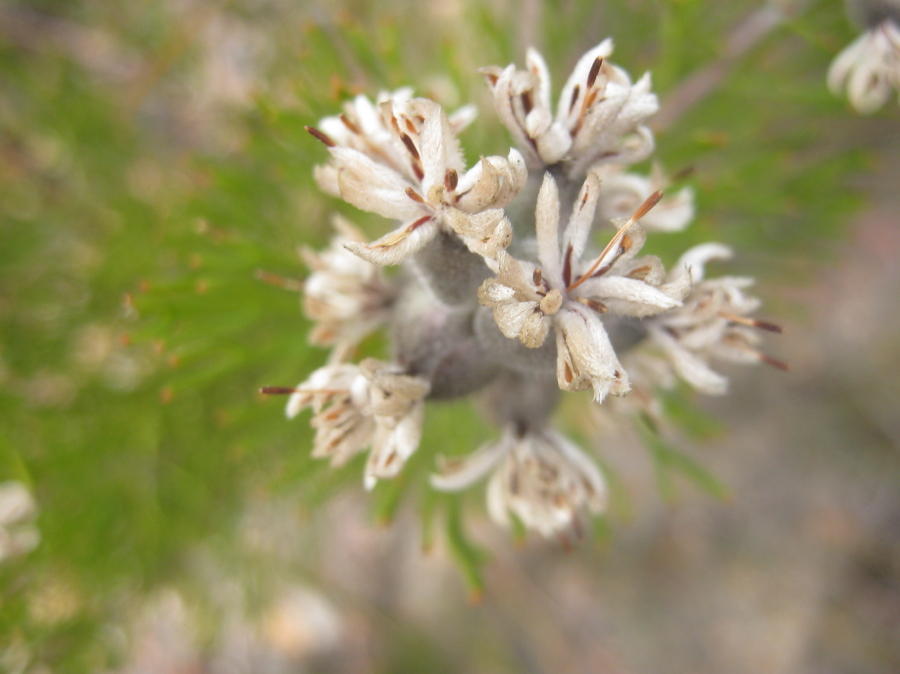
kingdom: Plantae
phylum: Tracheophyta
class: Magnoliopsida
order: Proteales
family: Proteaceae
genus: Paranomus
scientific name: Paranomus dregei
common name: Scented sceptre
